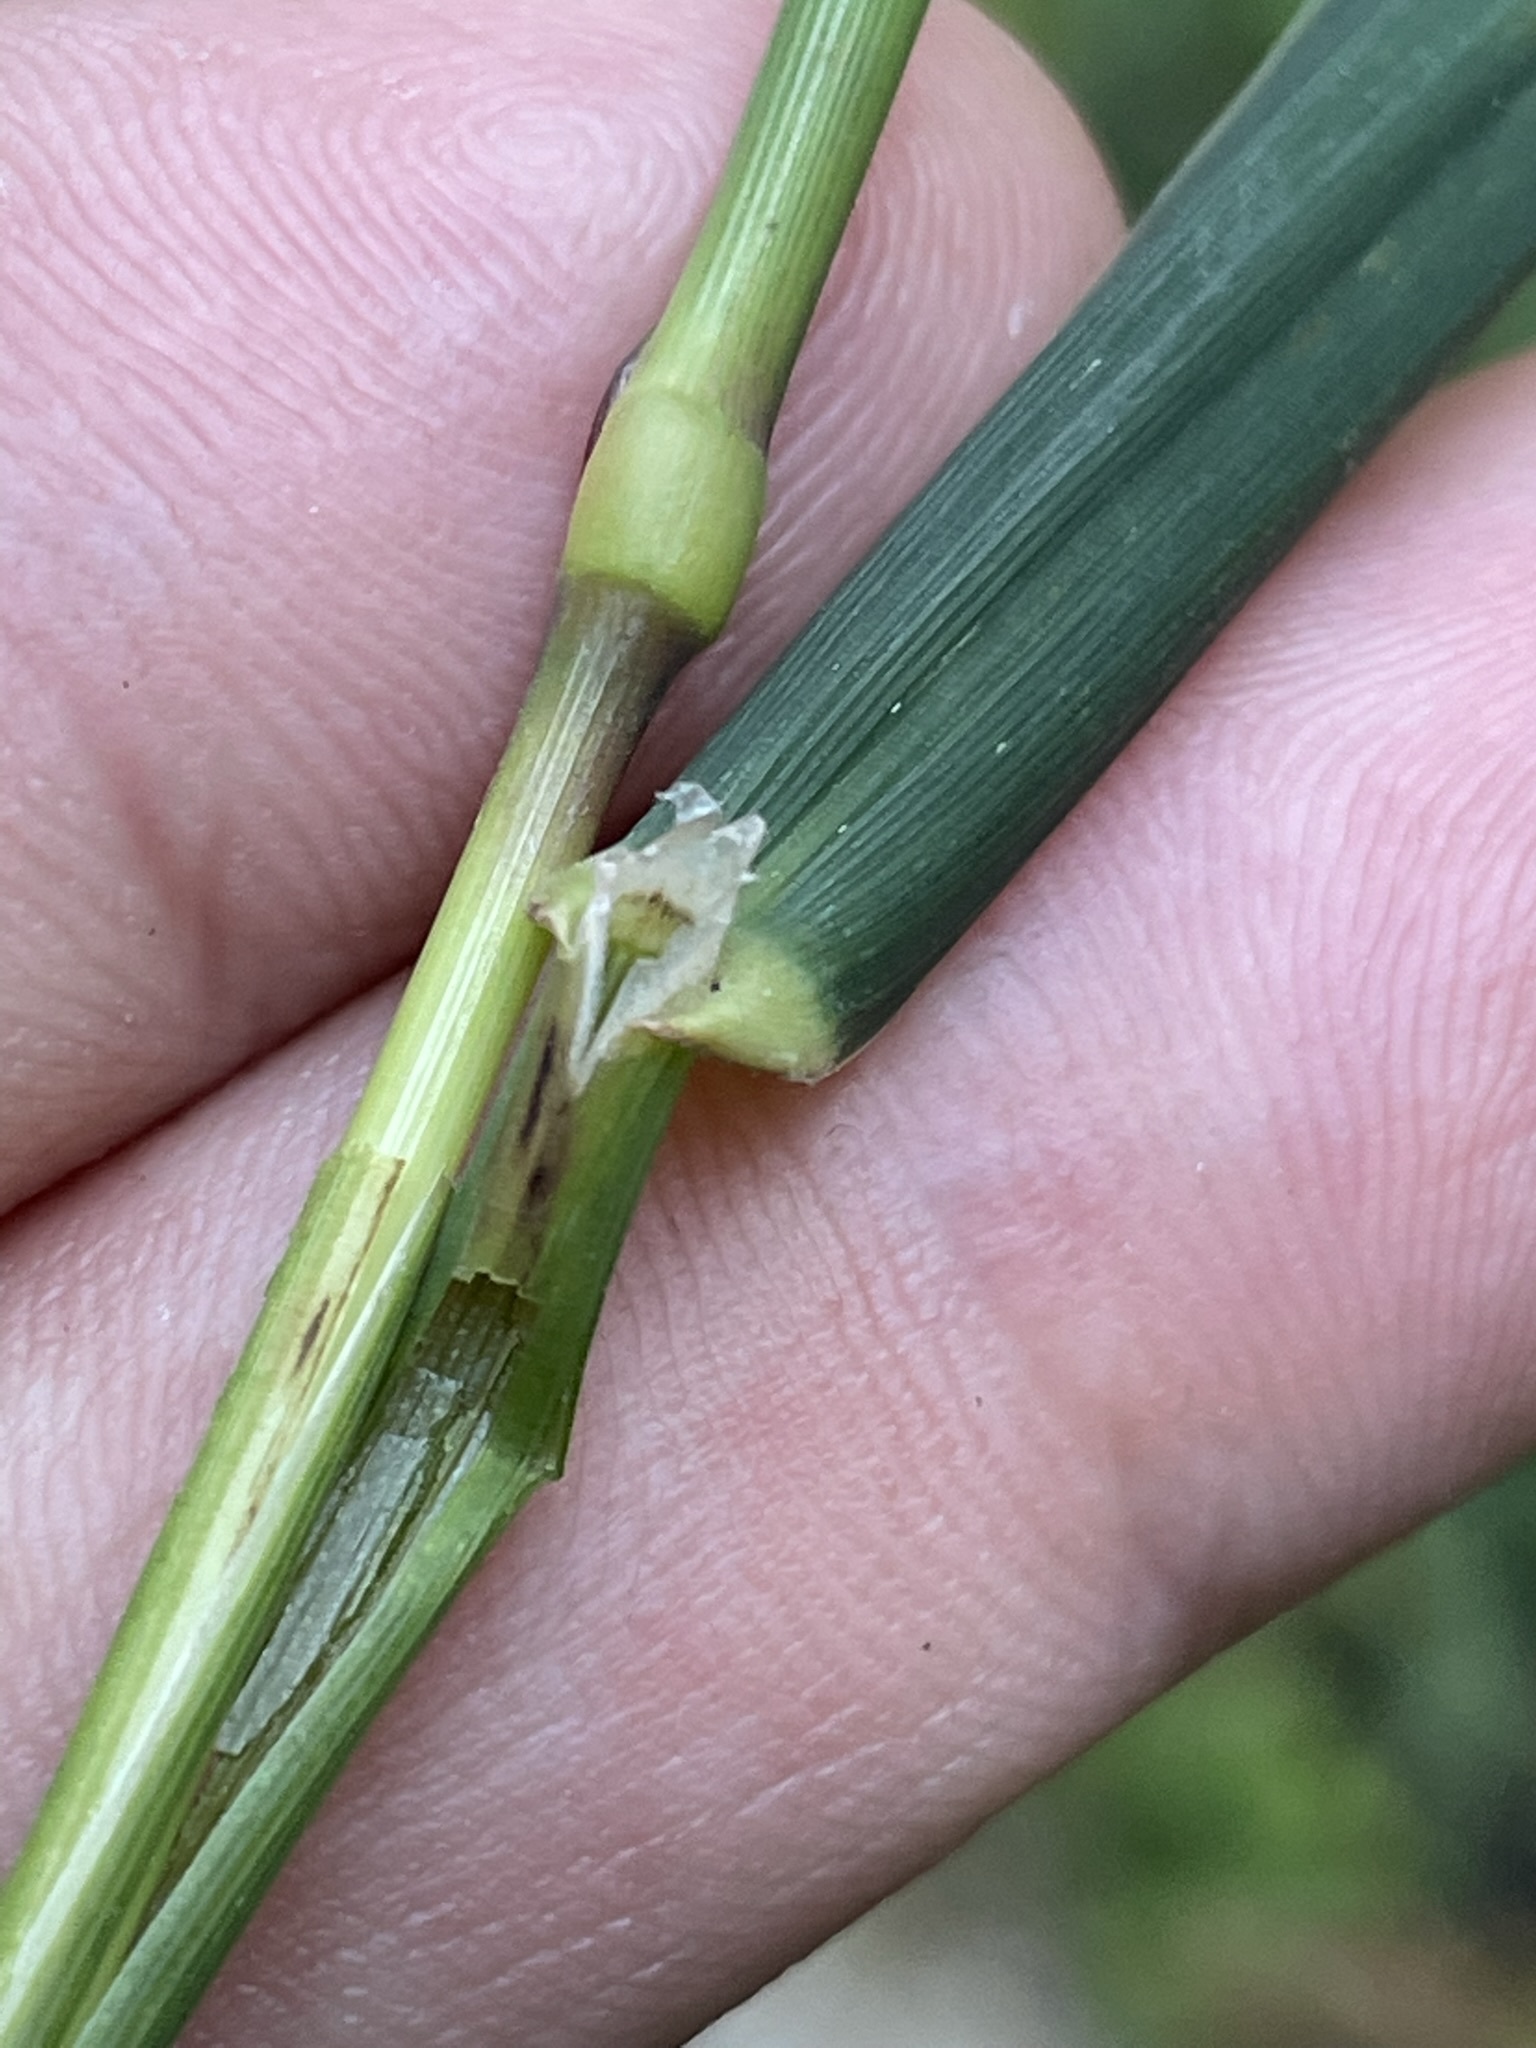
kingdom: Plantae
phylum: Tracheophyta
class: Liliopsida
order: Poales
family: Poaceae
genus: Phalaris
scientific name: Phalaris arundinacea
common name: Reed canary-grass
